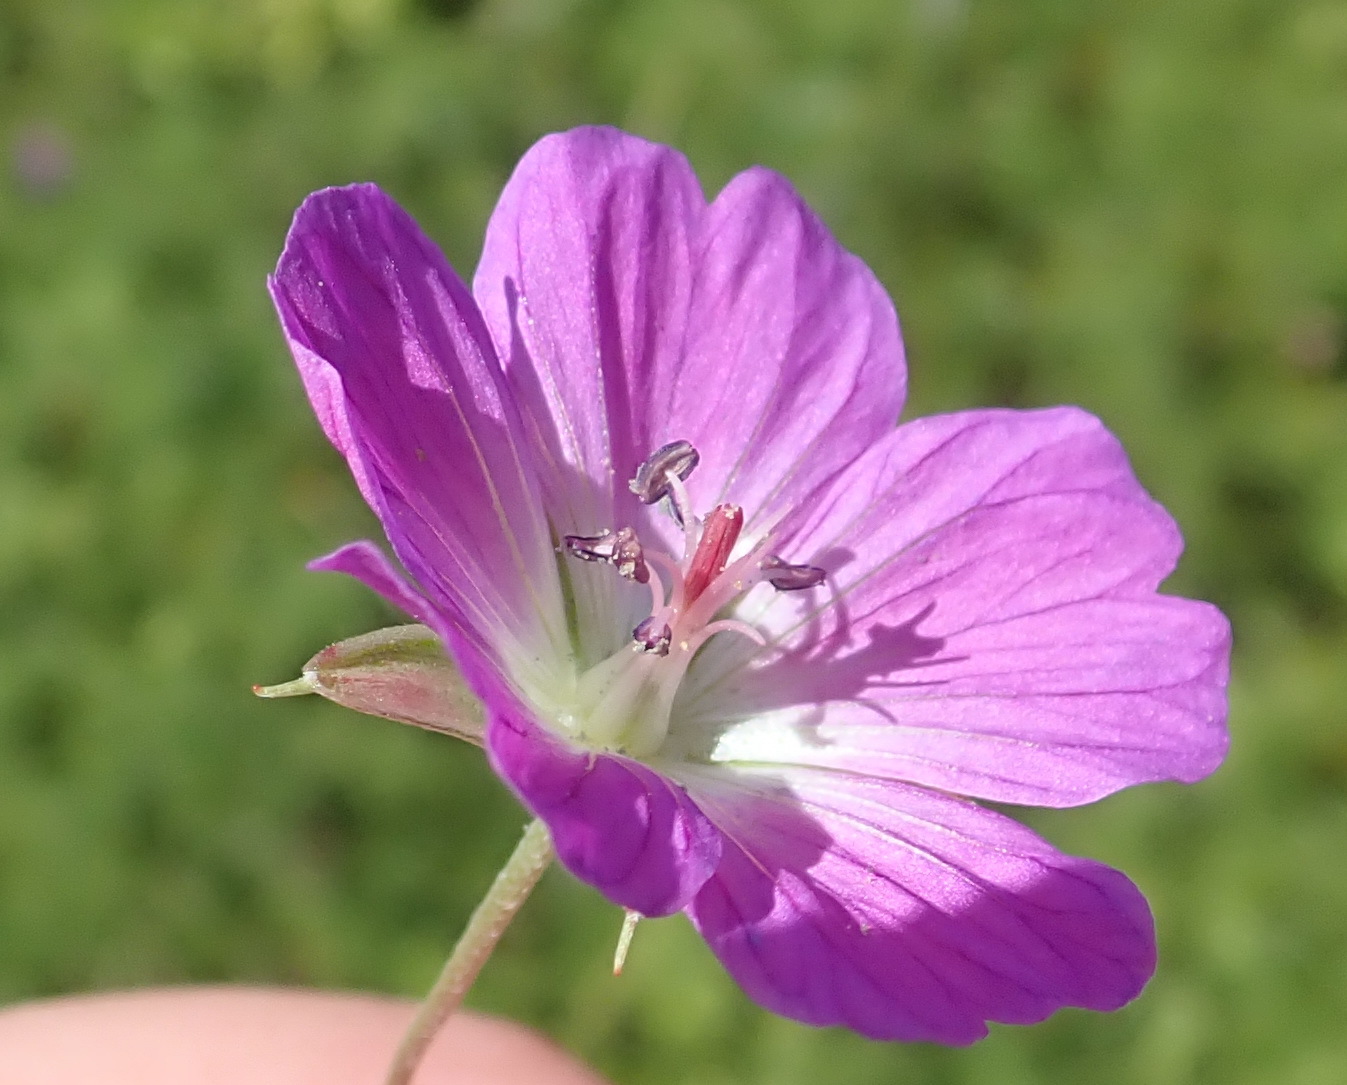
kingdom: Plantae
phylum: Tracheophyta
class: Magnoliopsida
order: Geraniales
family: Geraniaceae
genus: Geranium
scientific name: Geranium incanum
